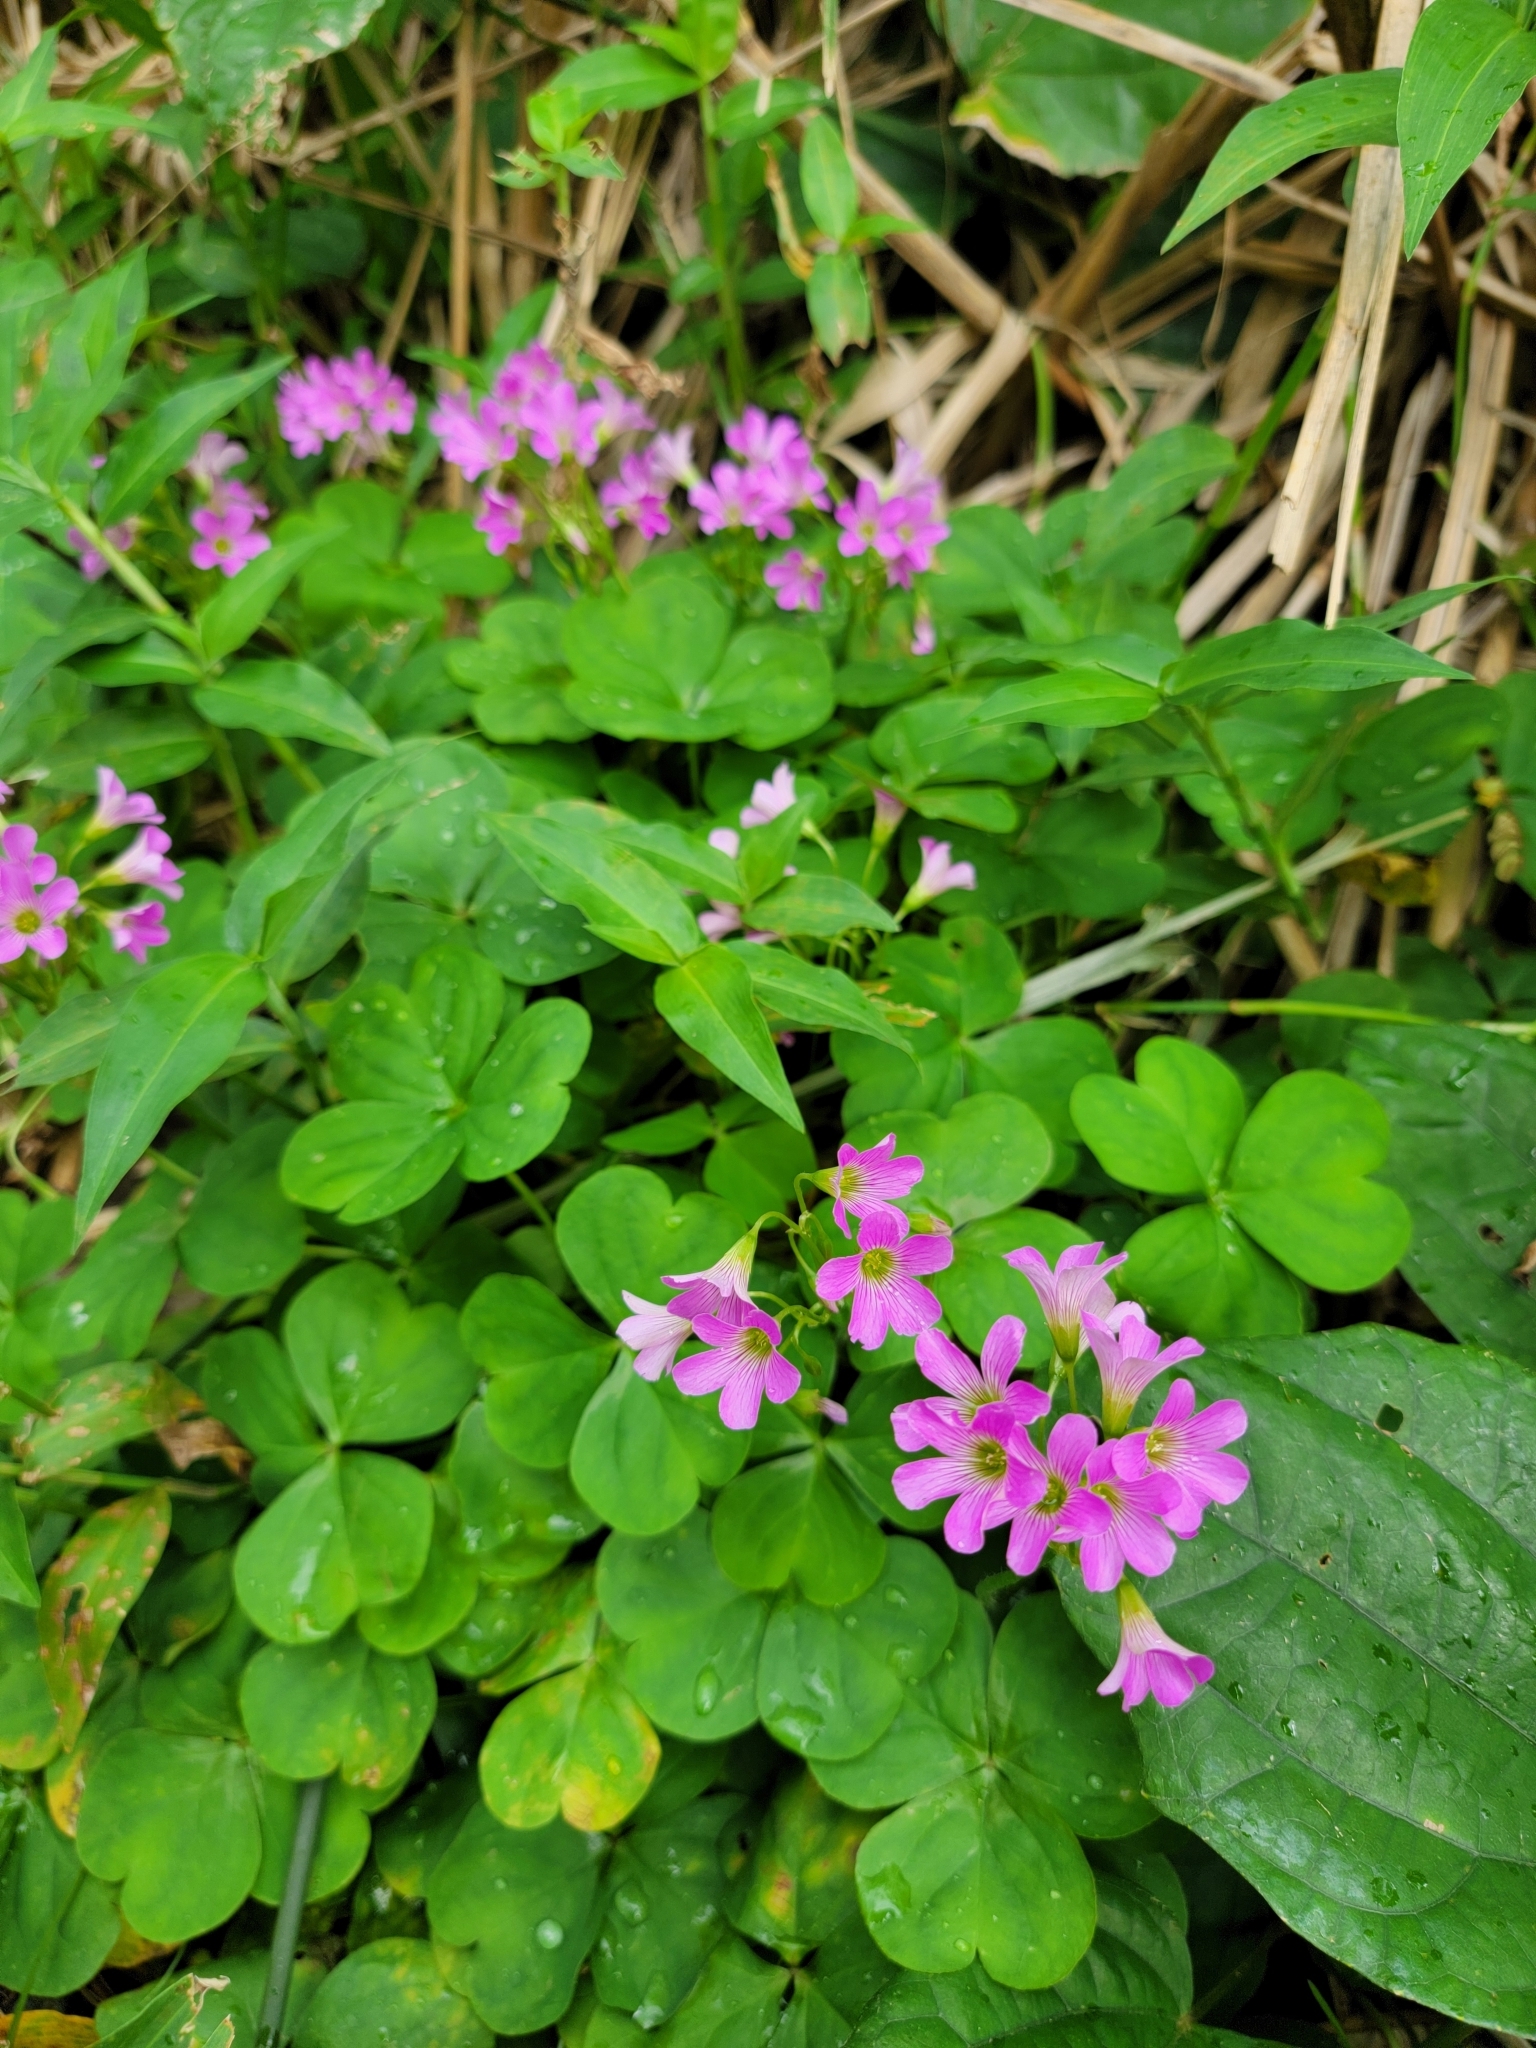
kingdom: Plantae
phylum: Tracheophyta
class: Magnoliopsida
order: Oxalidales
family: Oxalidaceae
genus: Oxalis
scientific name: Oxalis debilis
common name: Large-flowered pink-sorrel
